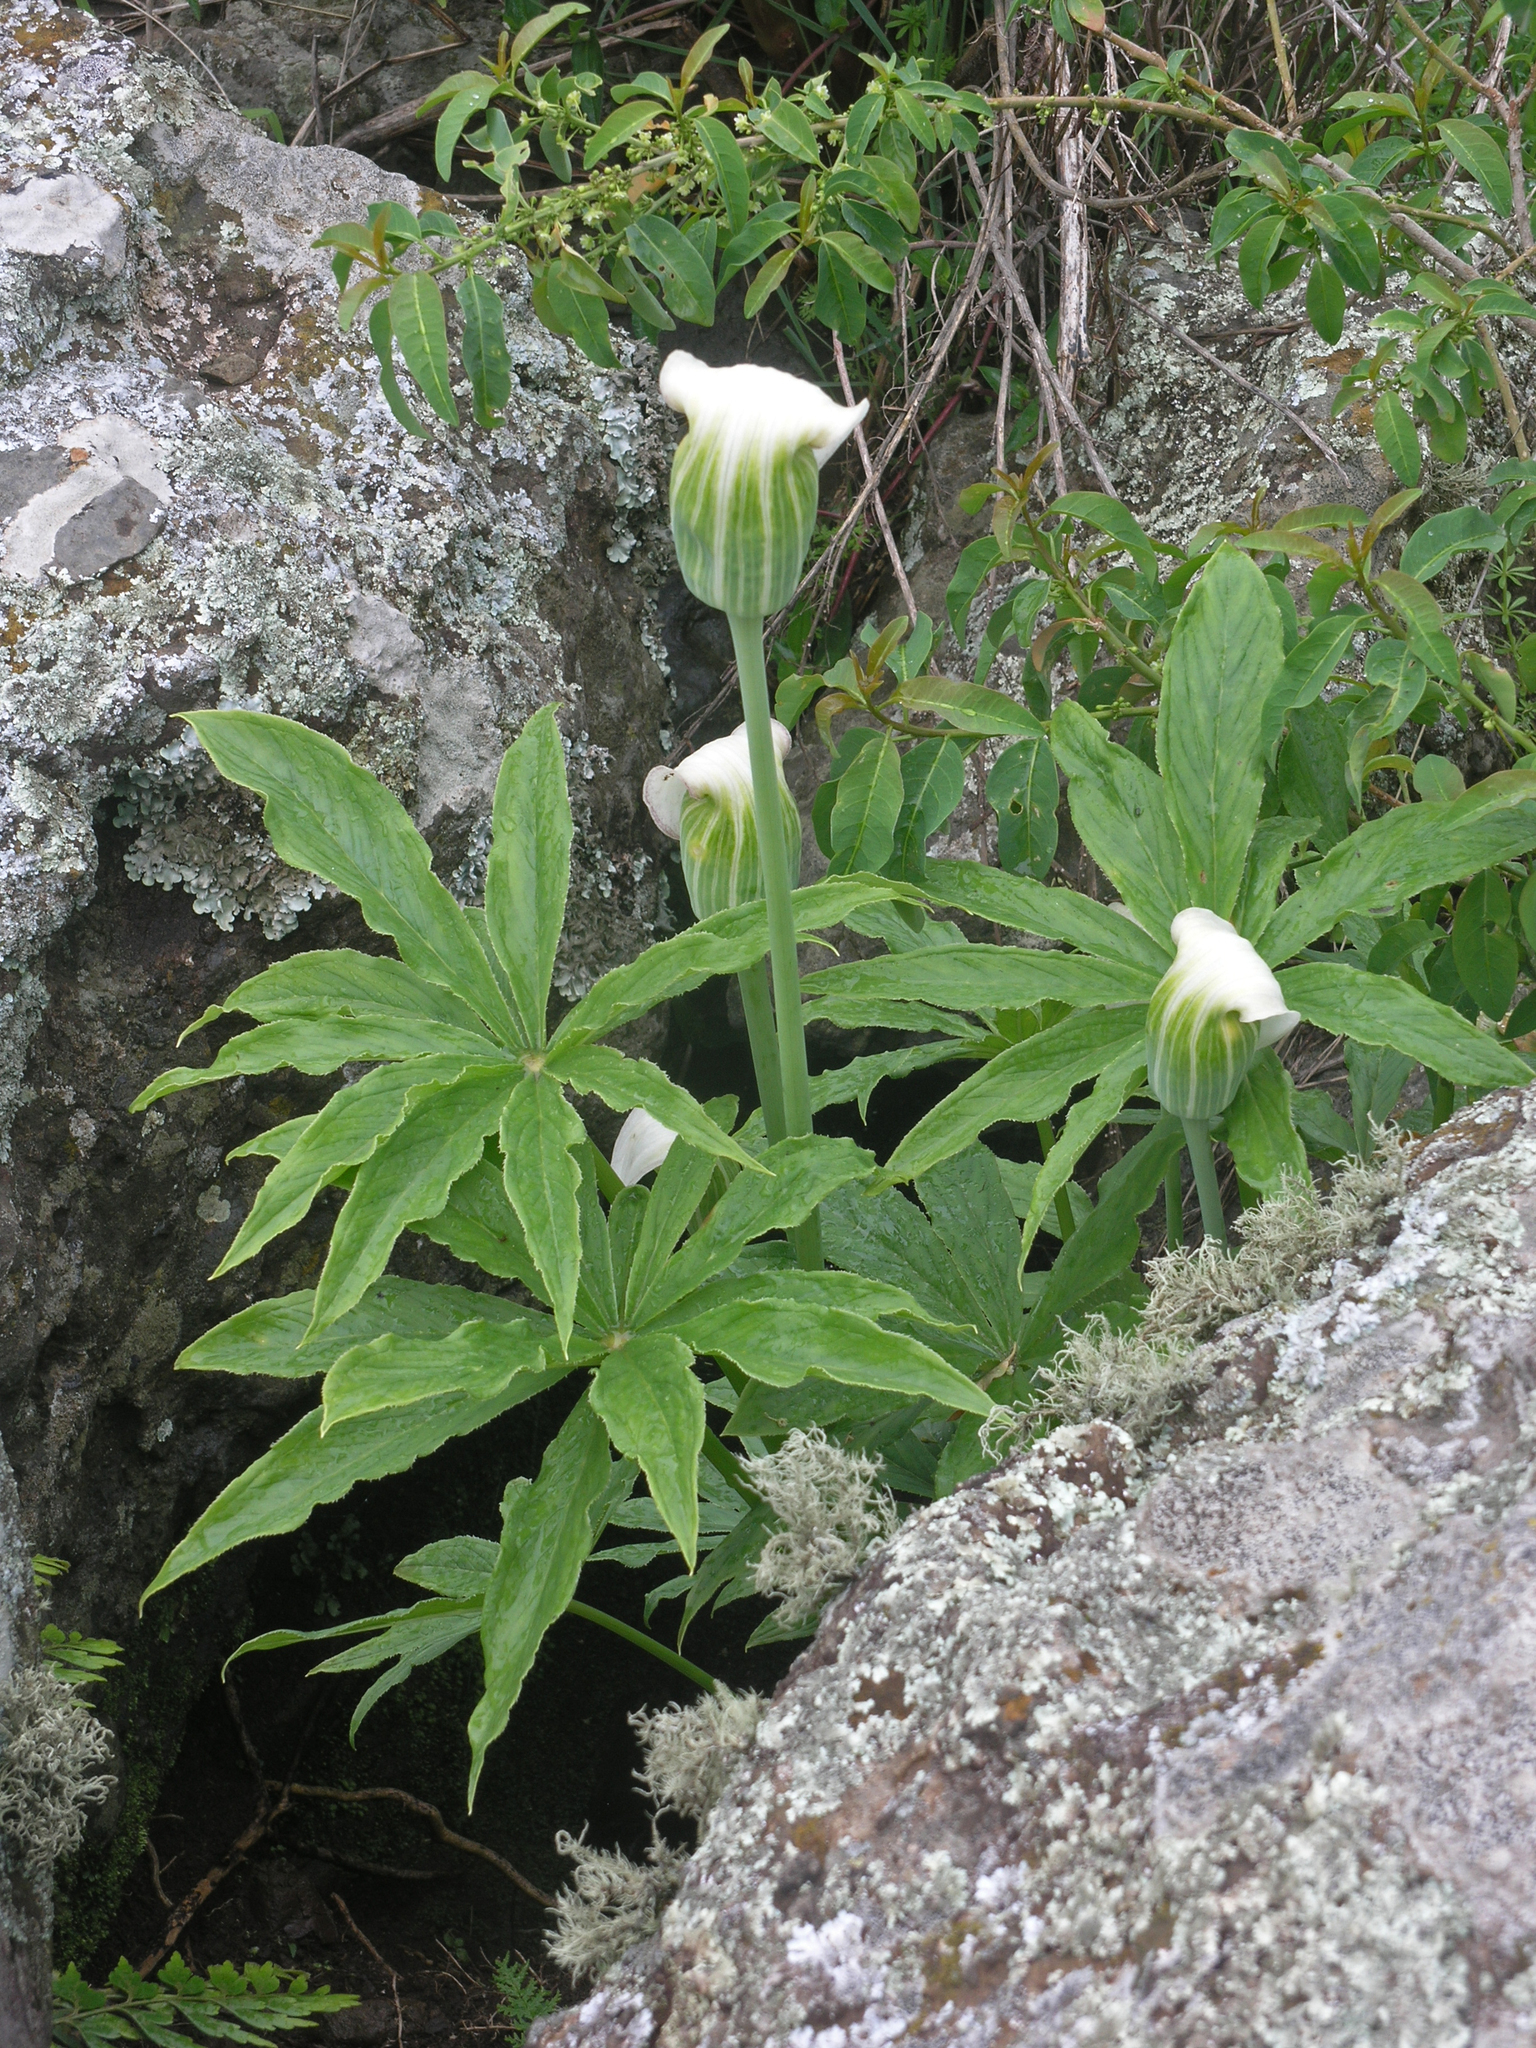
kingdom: Plantae
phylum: Tracheophyta
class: Liliopsida
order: Alismatales
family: Araceae
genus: Arisaema
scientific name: Arisaema enneaphyllum
